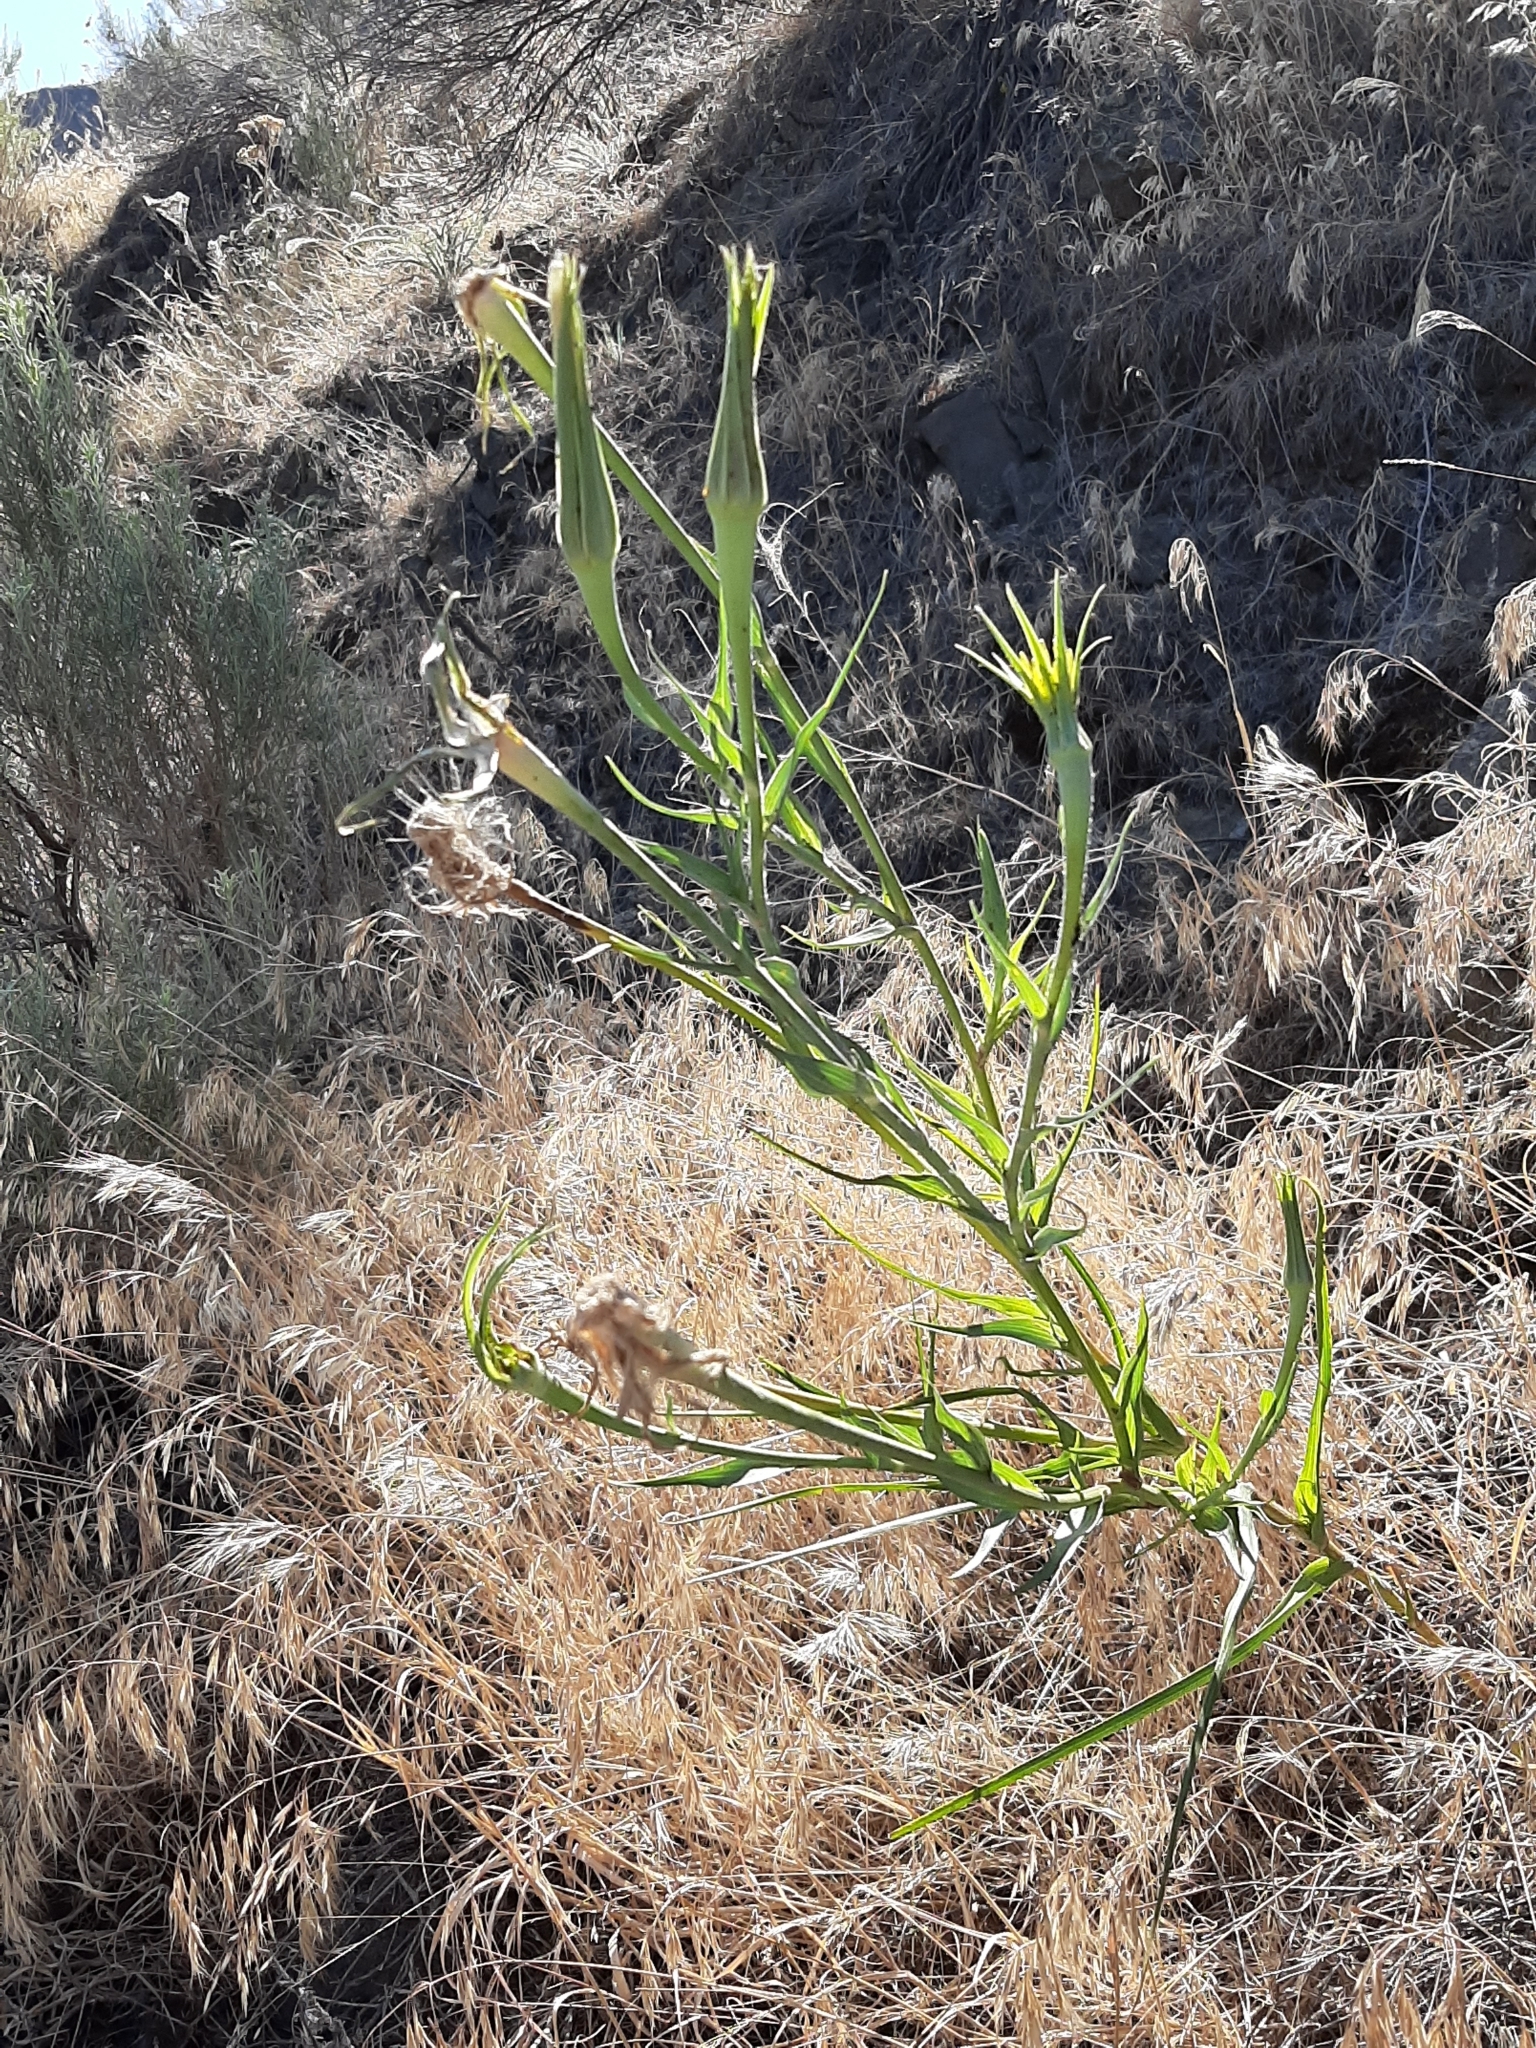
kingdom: Plantae
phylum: Tracheophyta
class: Magnoliopsida
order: Asterales
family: Asteraceae
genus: Tragopogon
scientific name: Tragopogon dubius
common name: Yellow salsify
